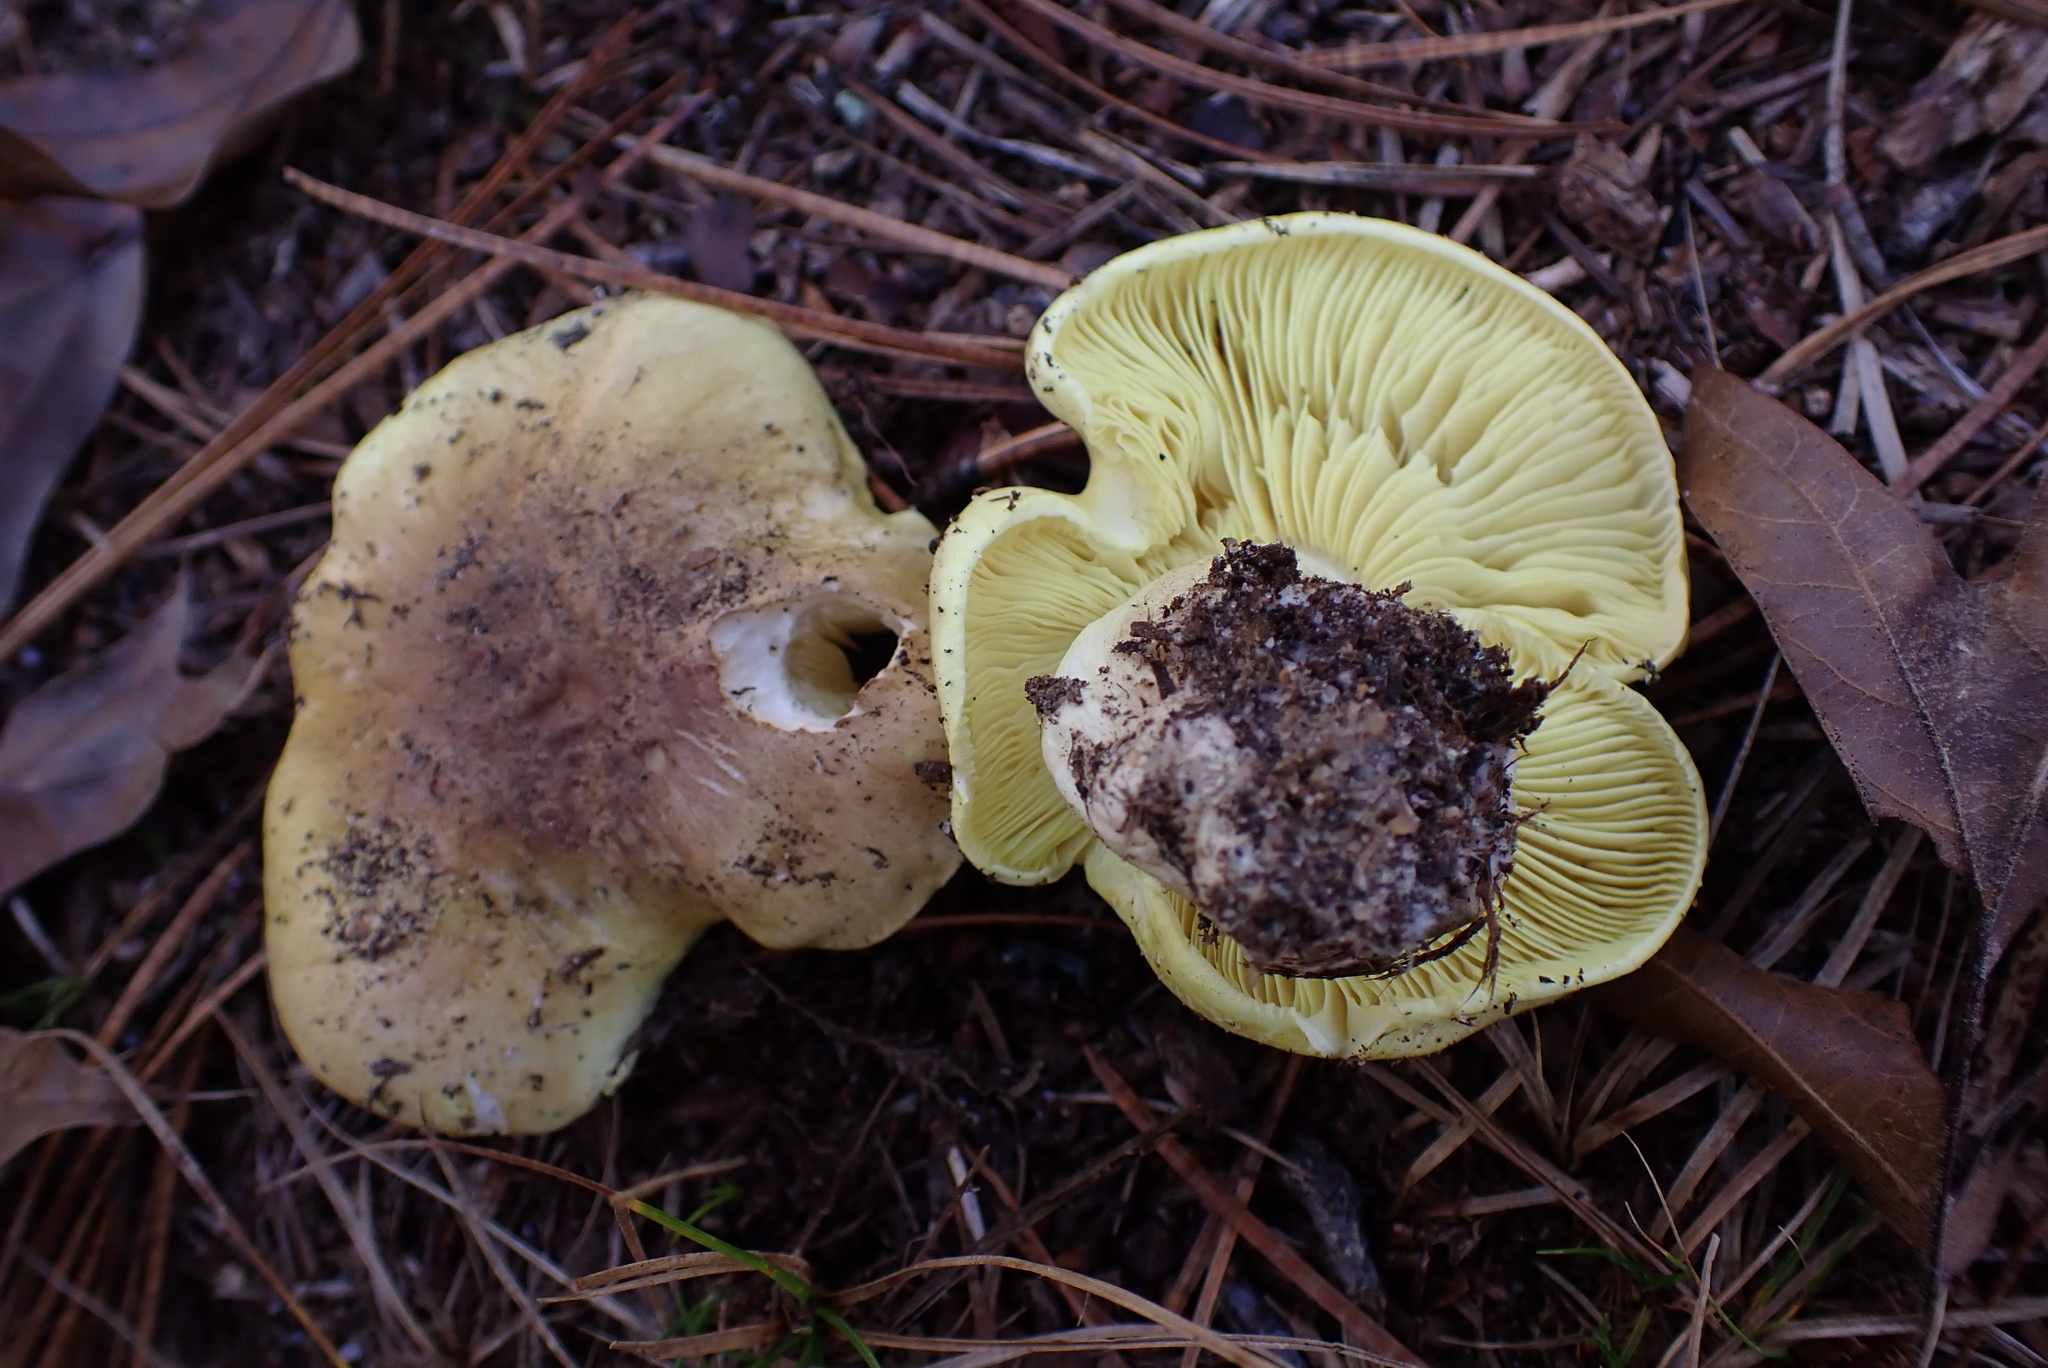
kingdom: Fungi
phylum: Basidiomycota
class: Agaricomycetes
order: Agaricales
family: Tricholomataceae
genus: Tricholoma
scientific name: Tricholoma equestre
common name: Yellow knight
